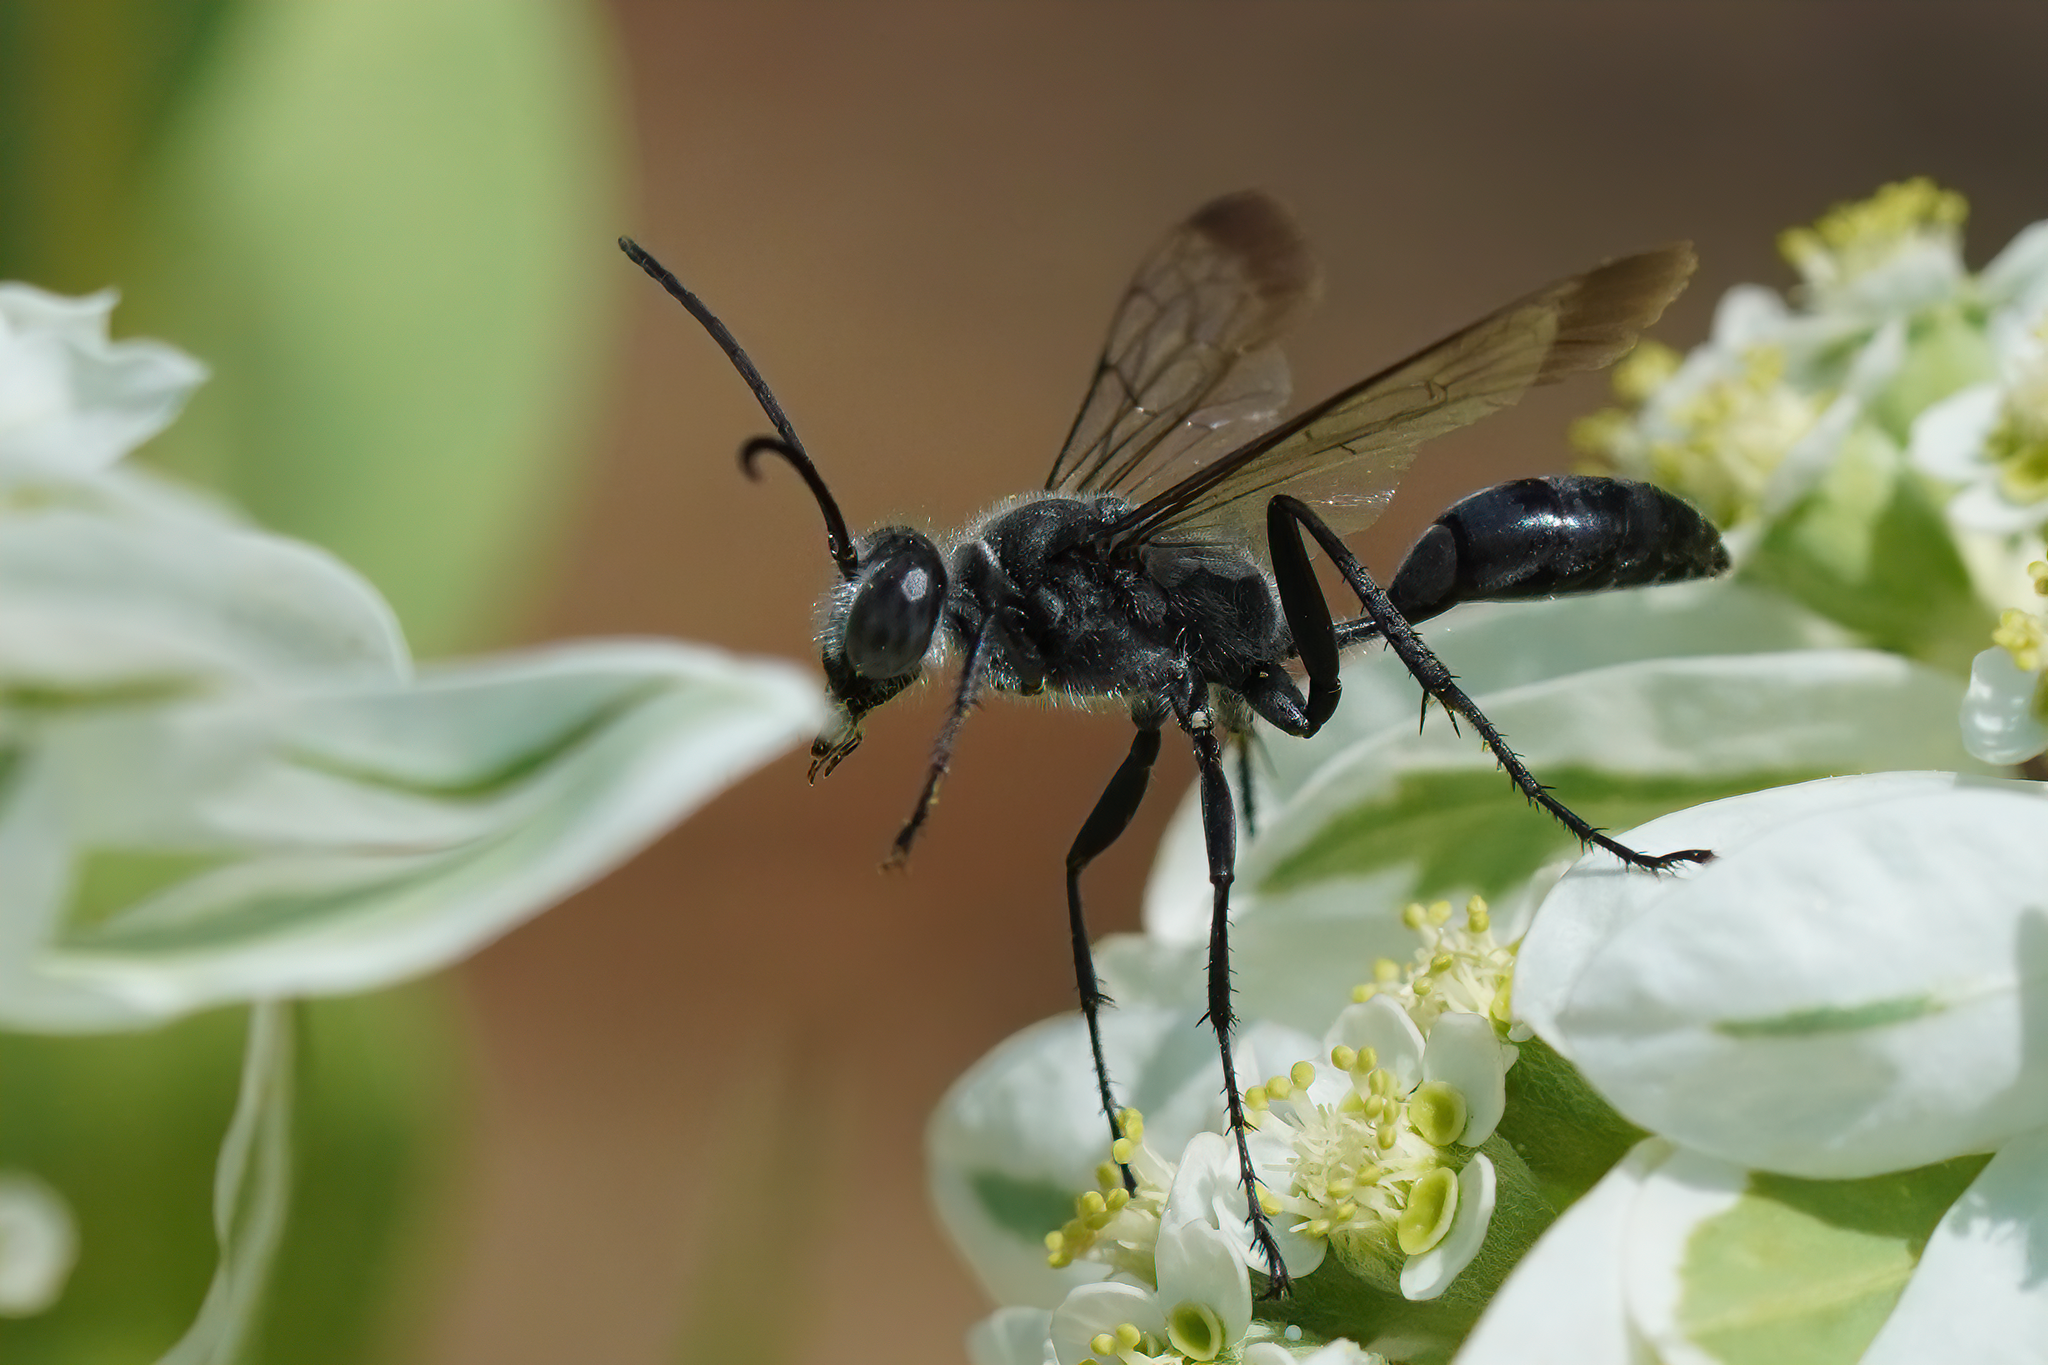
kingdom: Animalia
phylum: Arthropoda
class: Insecta
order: Hymenoptera
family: Sphecidae
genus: Sphex
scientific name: Sphex pruinosus
